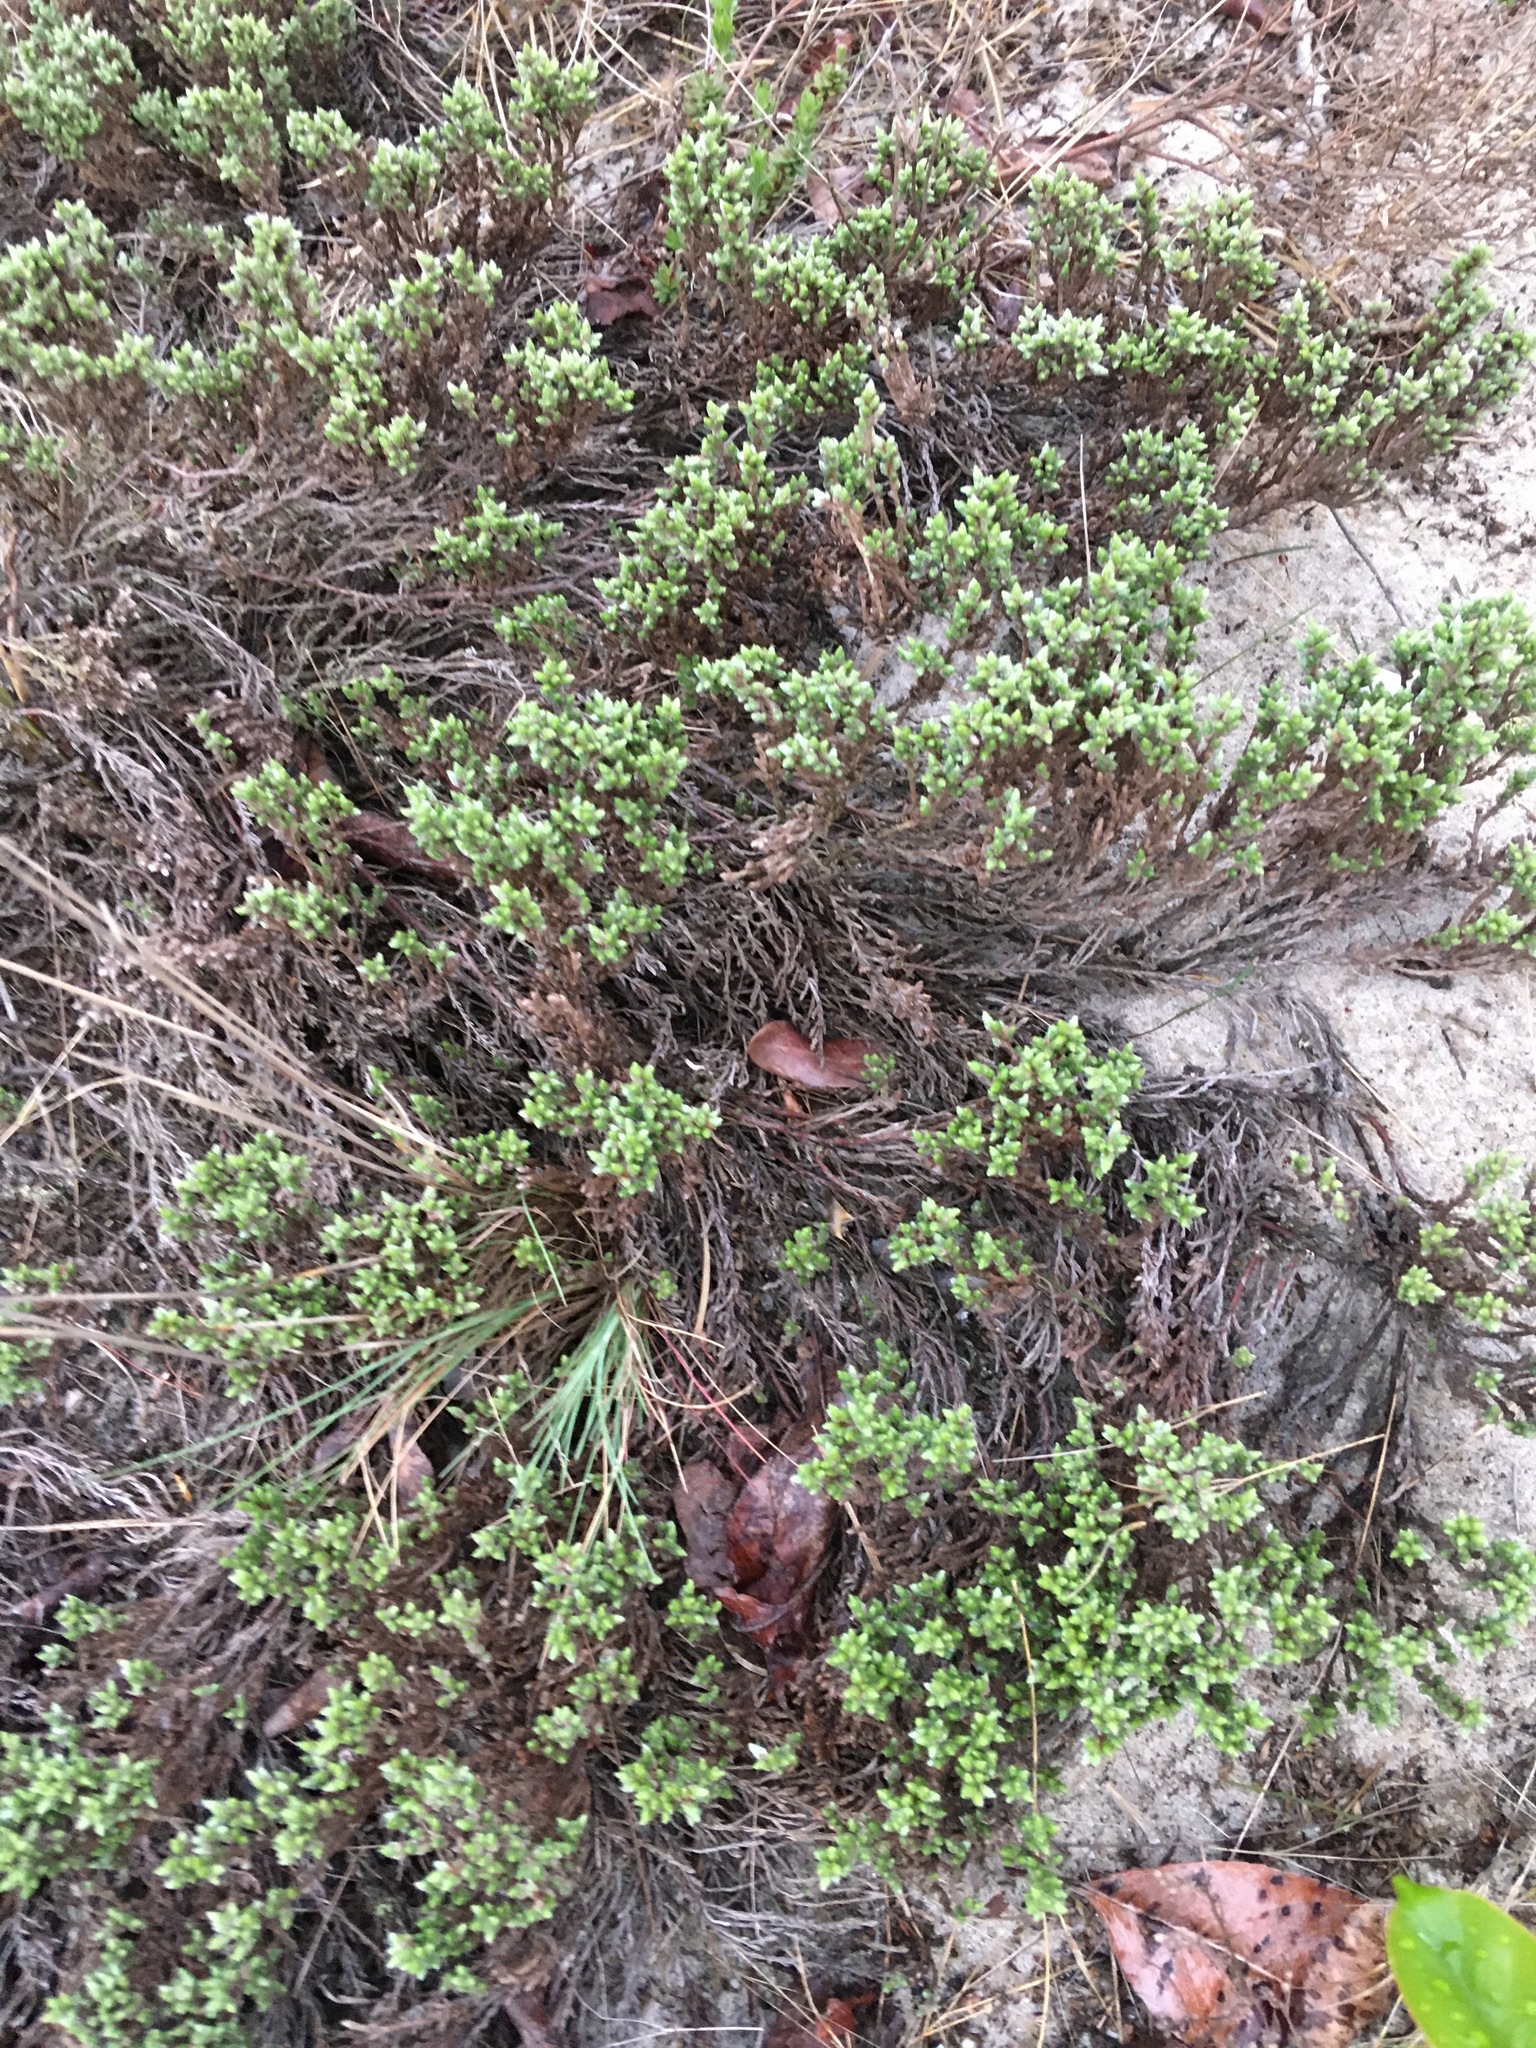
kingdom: Plantae
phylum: Tracheophyta
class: Magnoliopsida
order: Malvales
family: Cistaceae
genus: Hudsonia
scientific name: Hudsonia tomentosa
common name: Beach-heath
